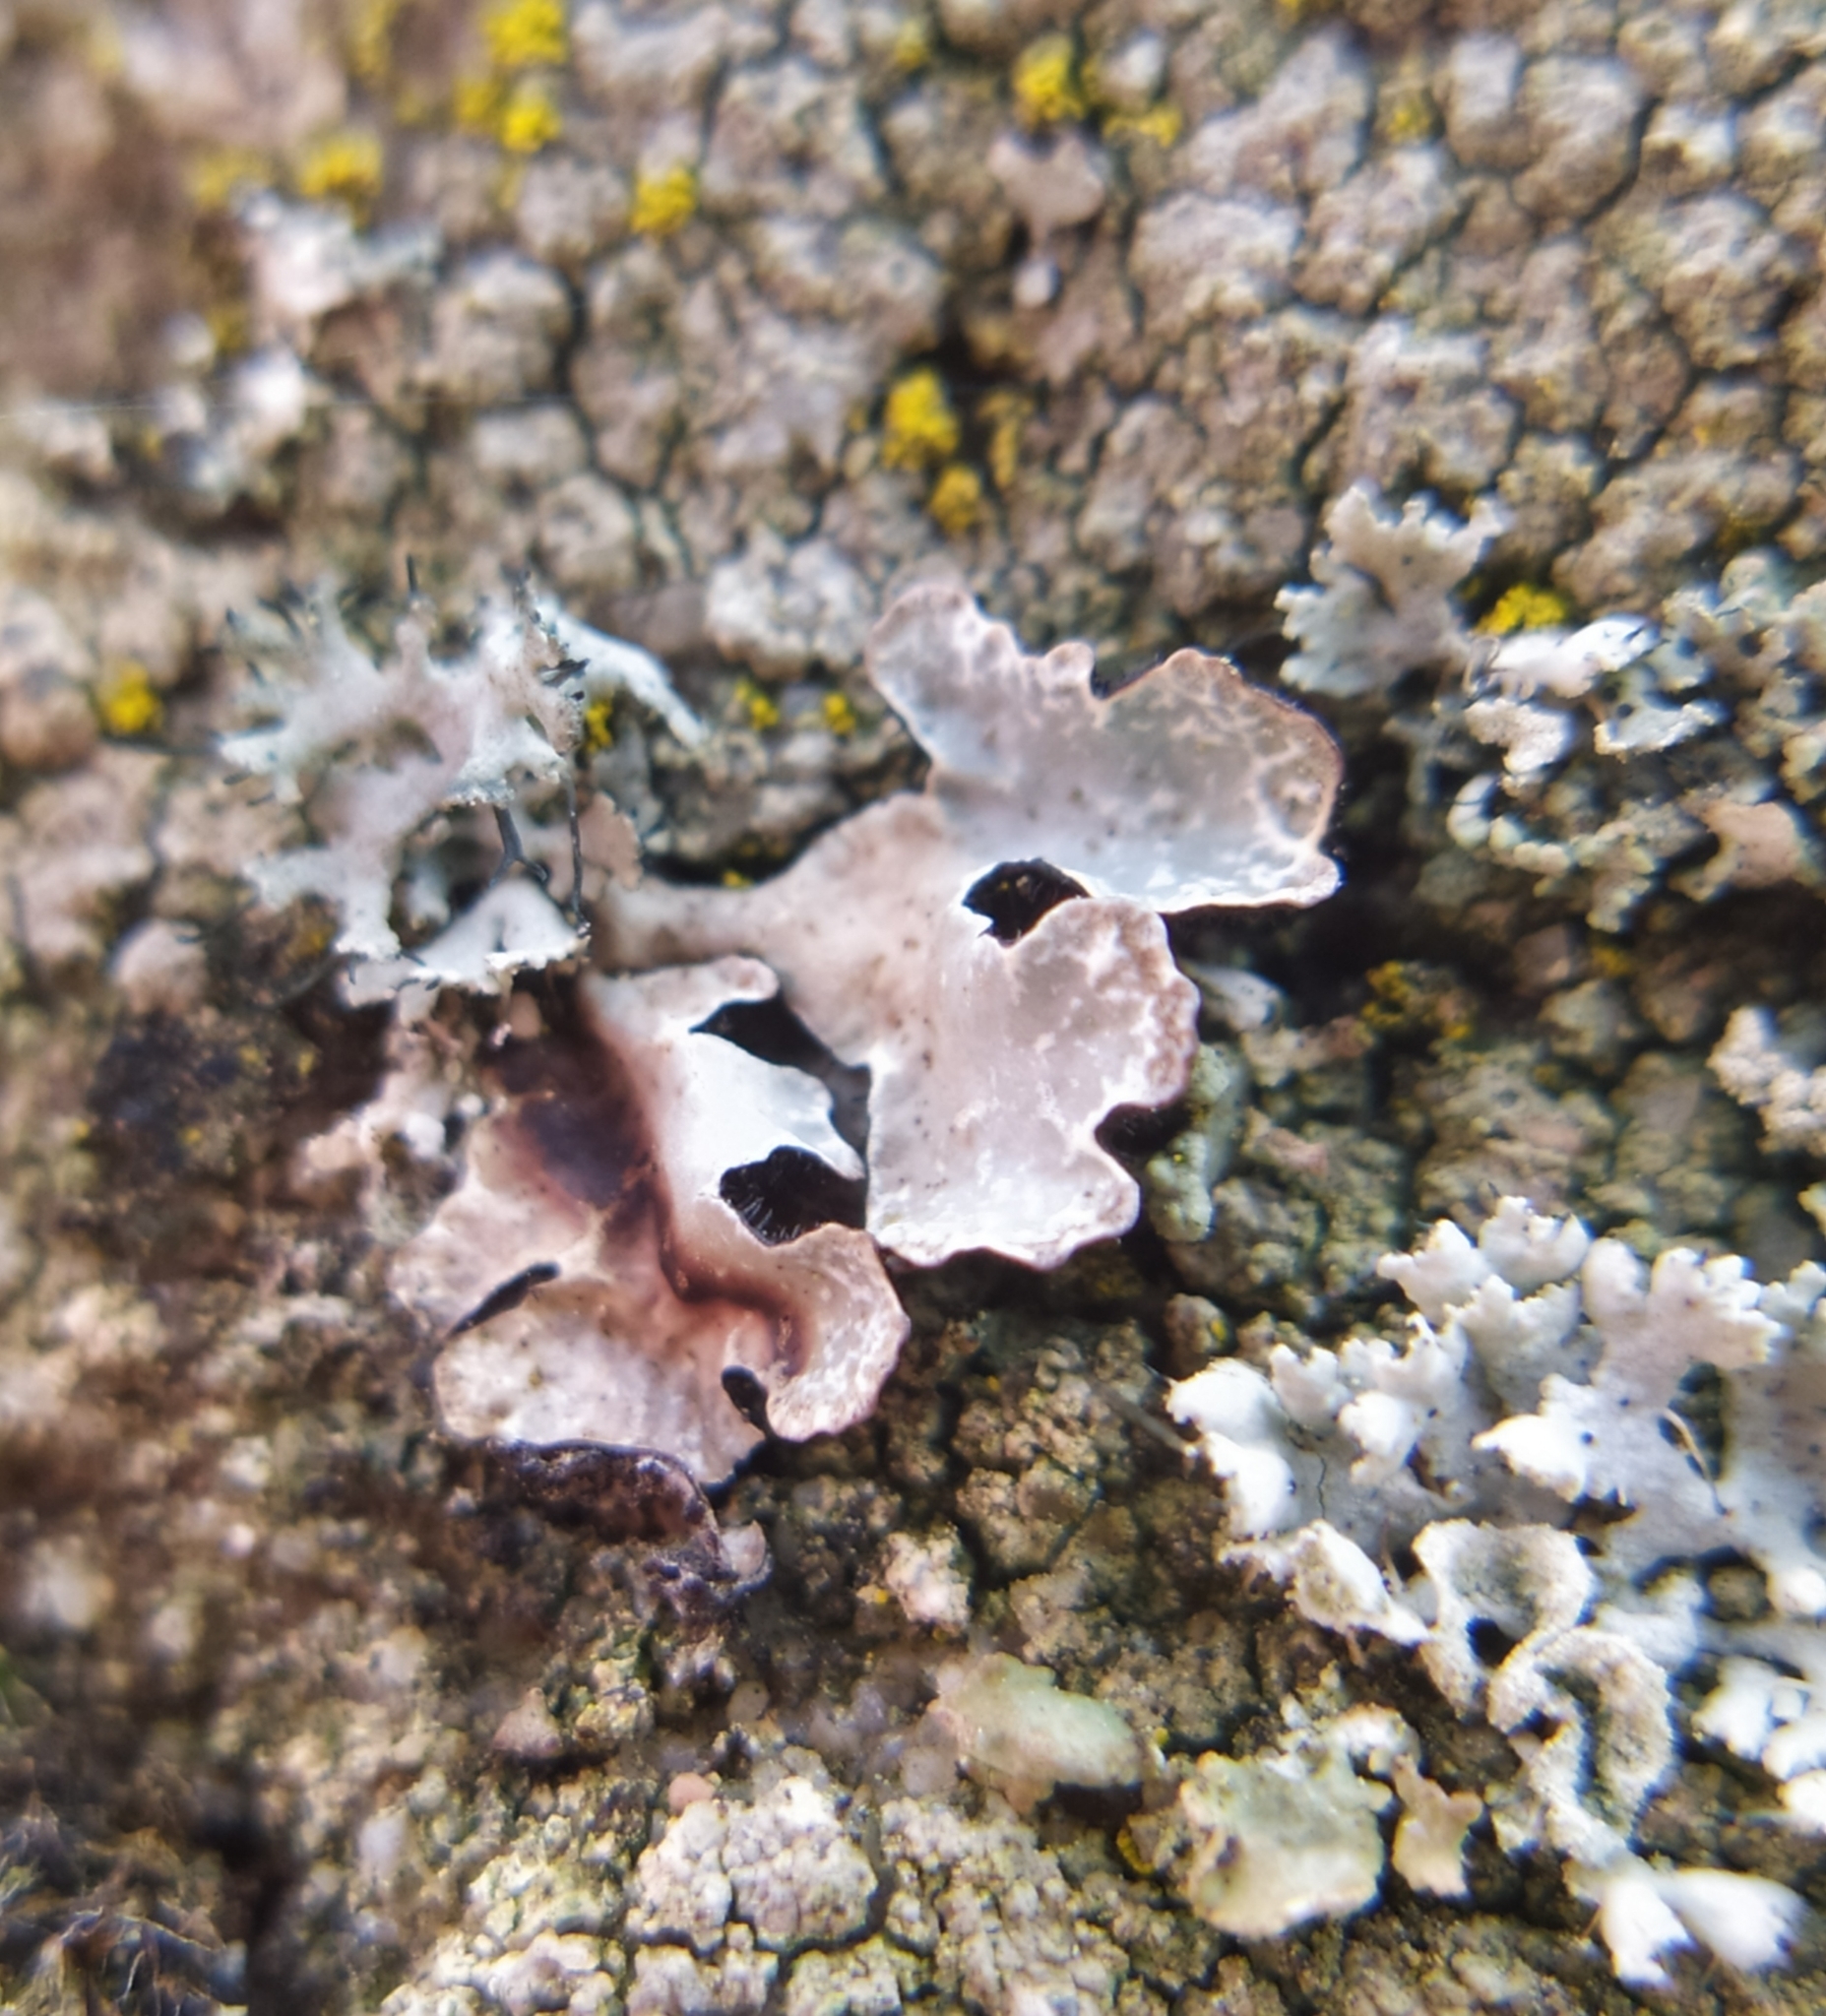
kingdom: Fungi
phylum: Ascomycota
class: Lecanoromycetes
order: Lecanorales
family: Parmeliaceae
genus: Parmelia
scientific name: Parmelia sulcata
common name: Netted shield lichen
